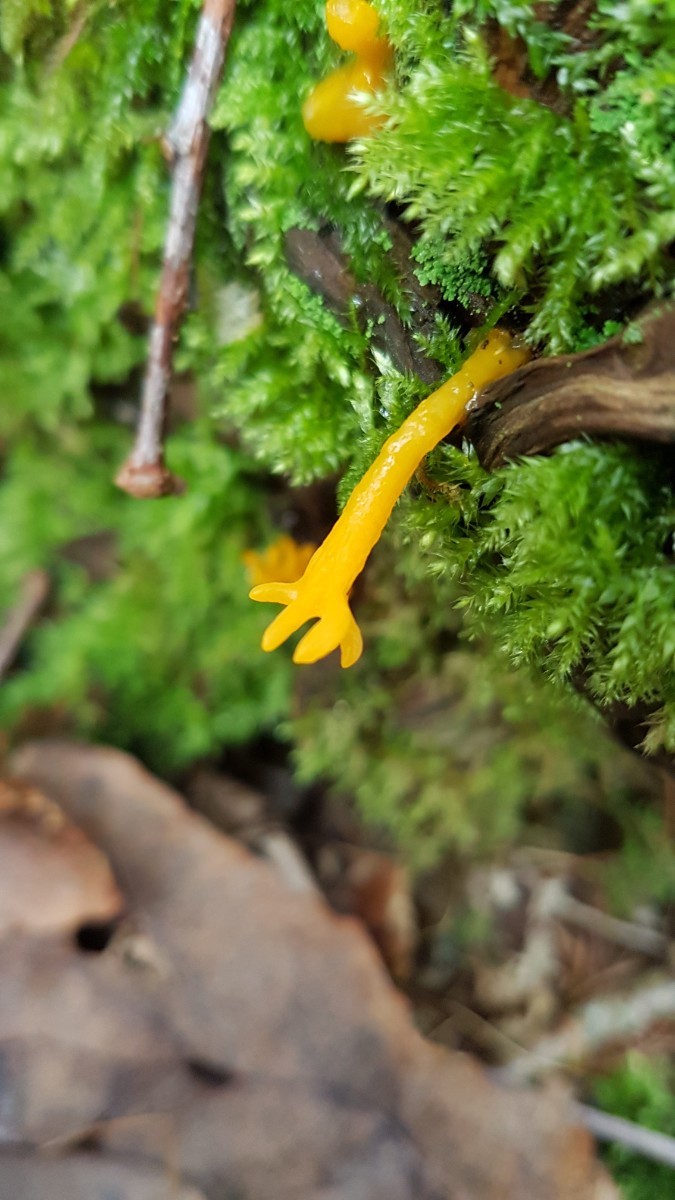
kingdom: Fungi
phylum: Basidiomycota
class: Dacrymycetes
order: Dacrymycetales
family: Dacrymycetaceae
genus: Calocera
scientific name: Calocera viscosa
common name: Yellow stagshorn
